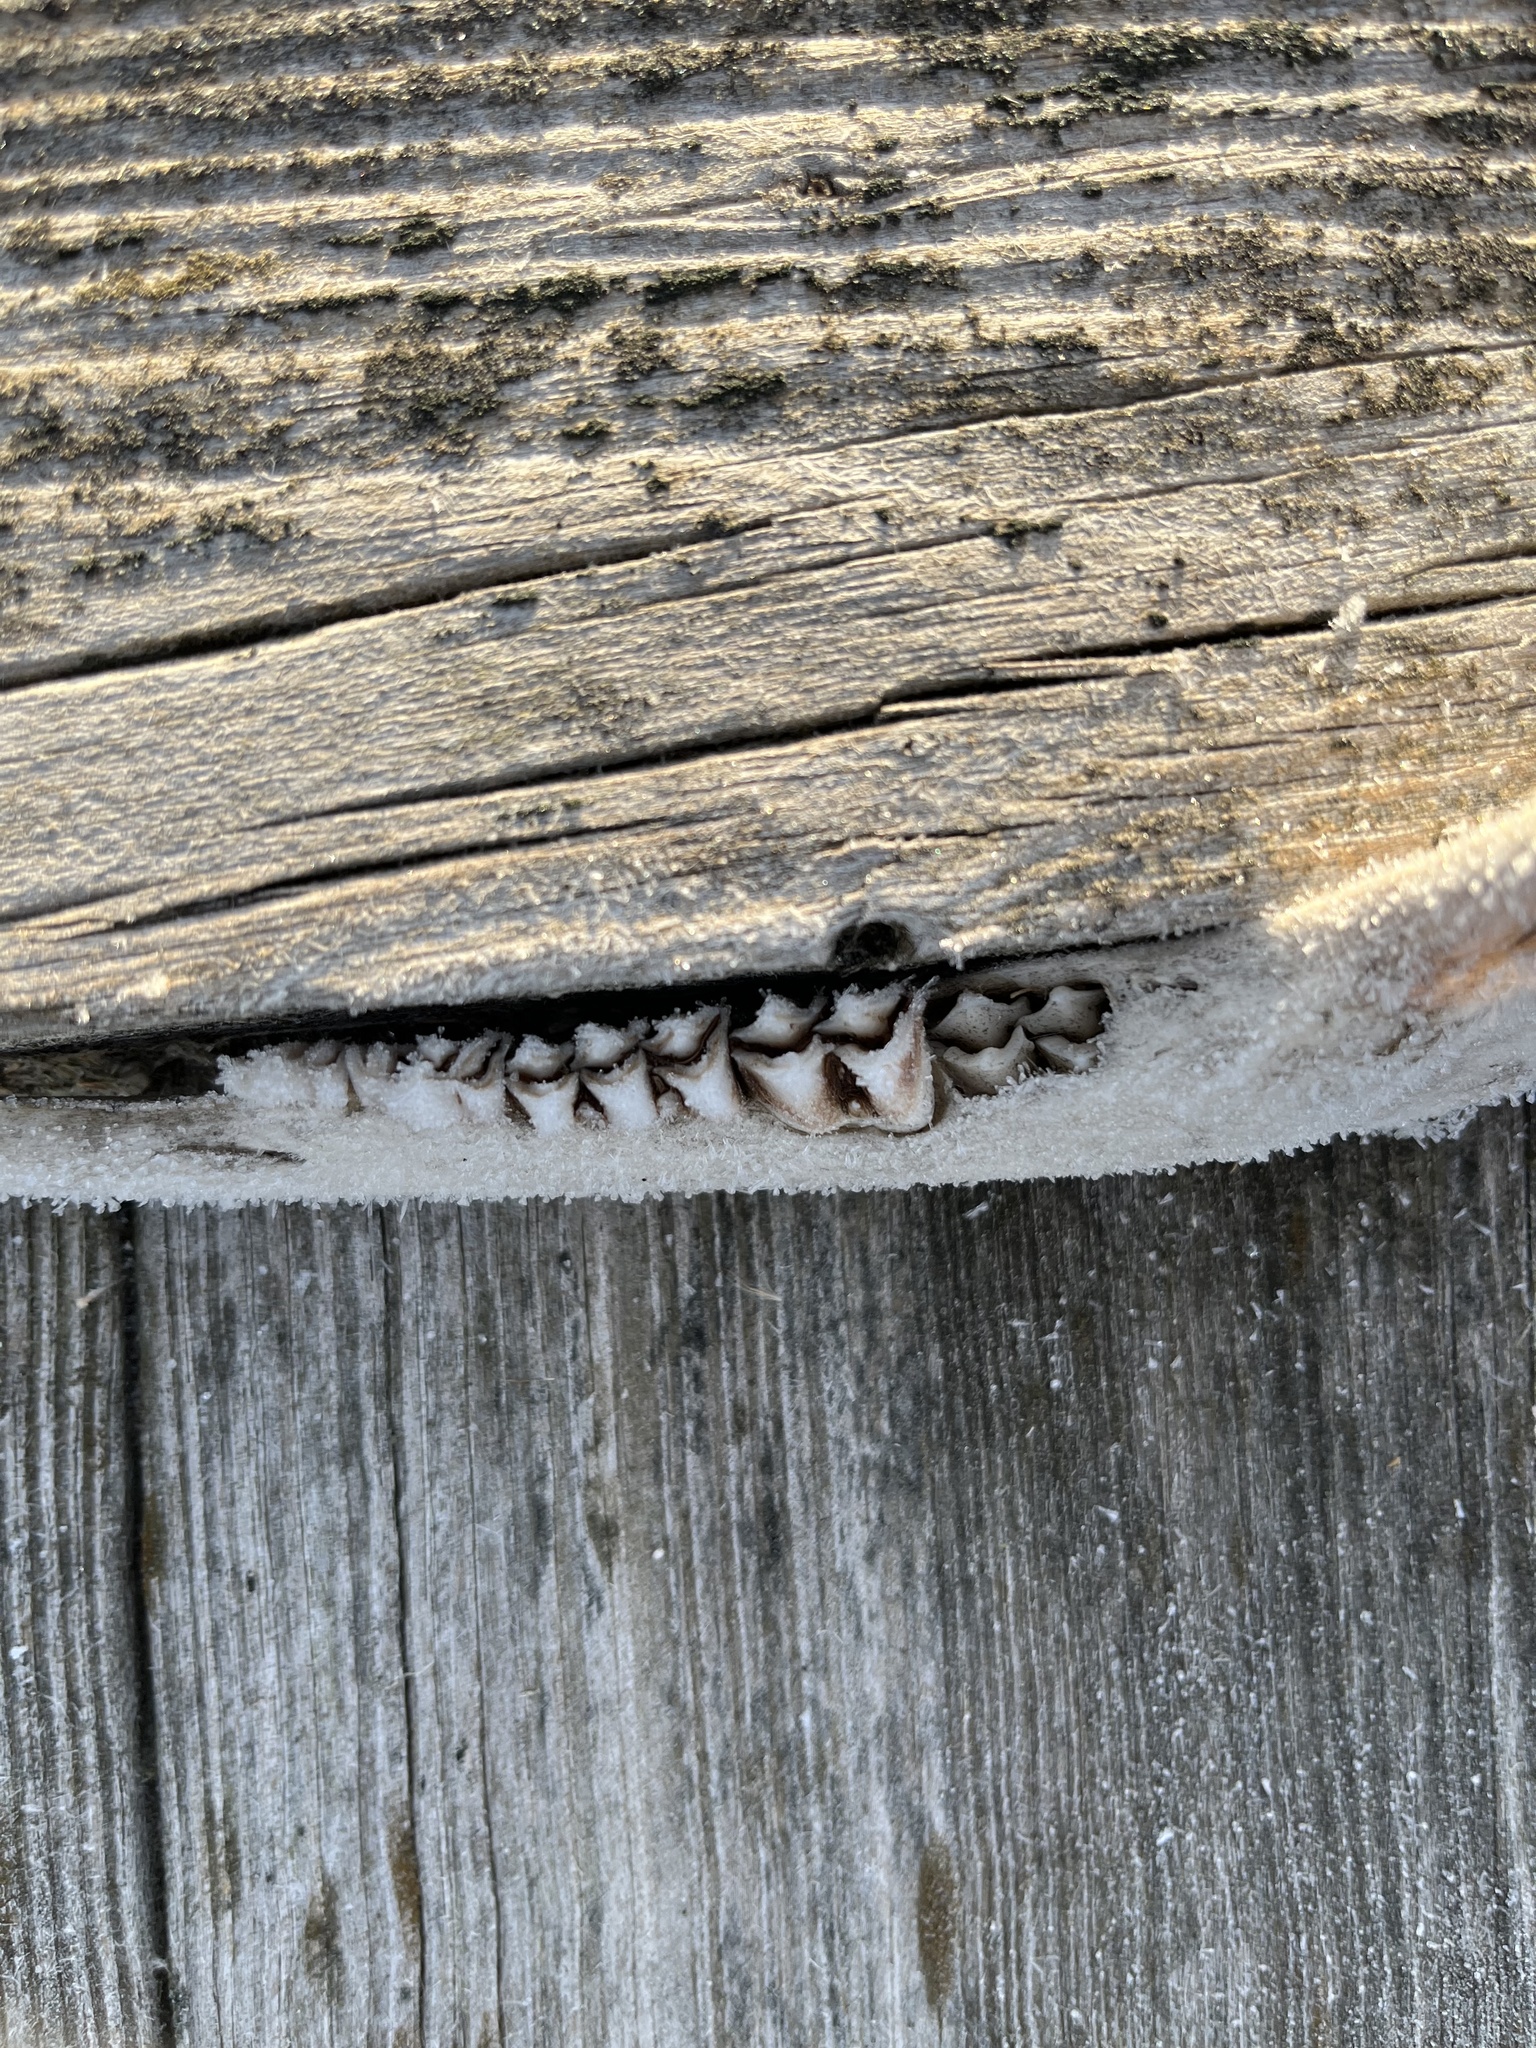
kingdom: Animalia
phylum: Chordata
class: Mammalia
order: Artiodactyla
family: Cervidae
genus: Odocoileus
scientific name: Odocoileus virginianus
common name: White-tailed deer
